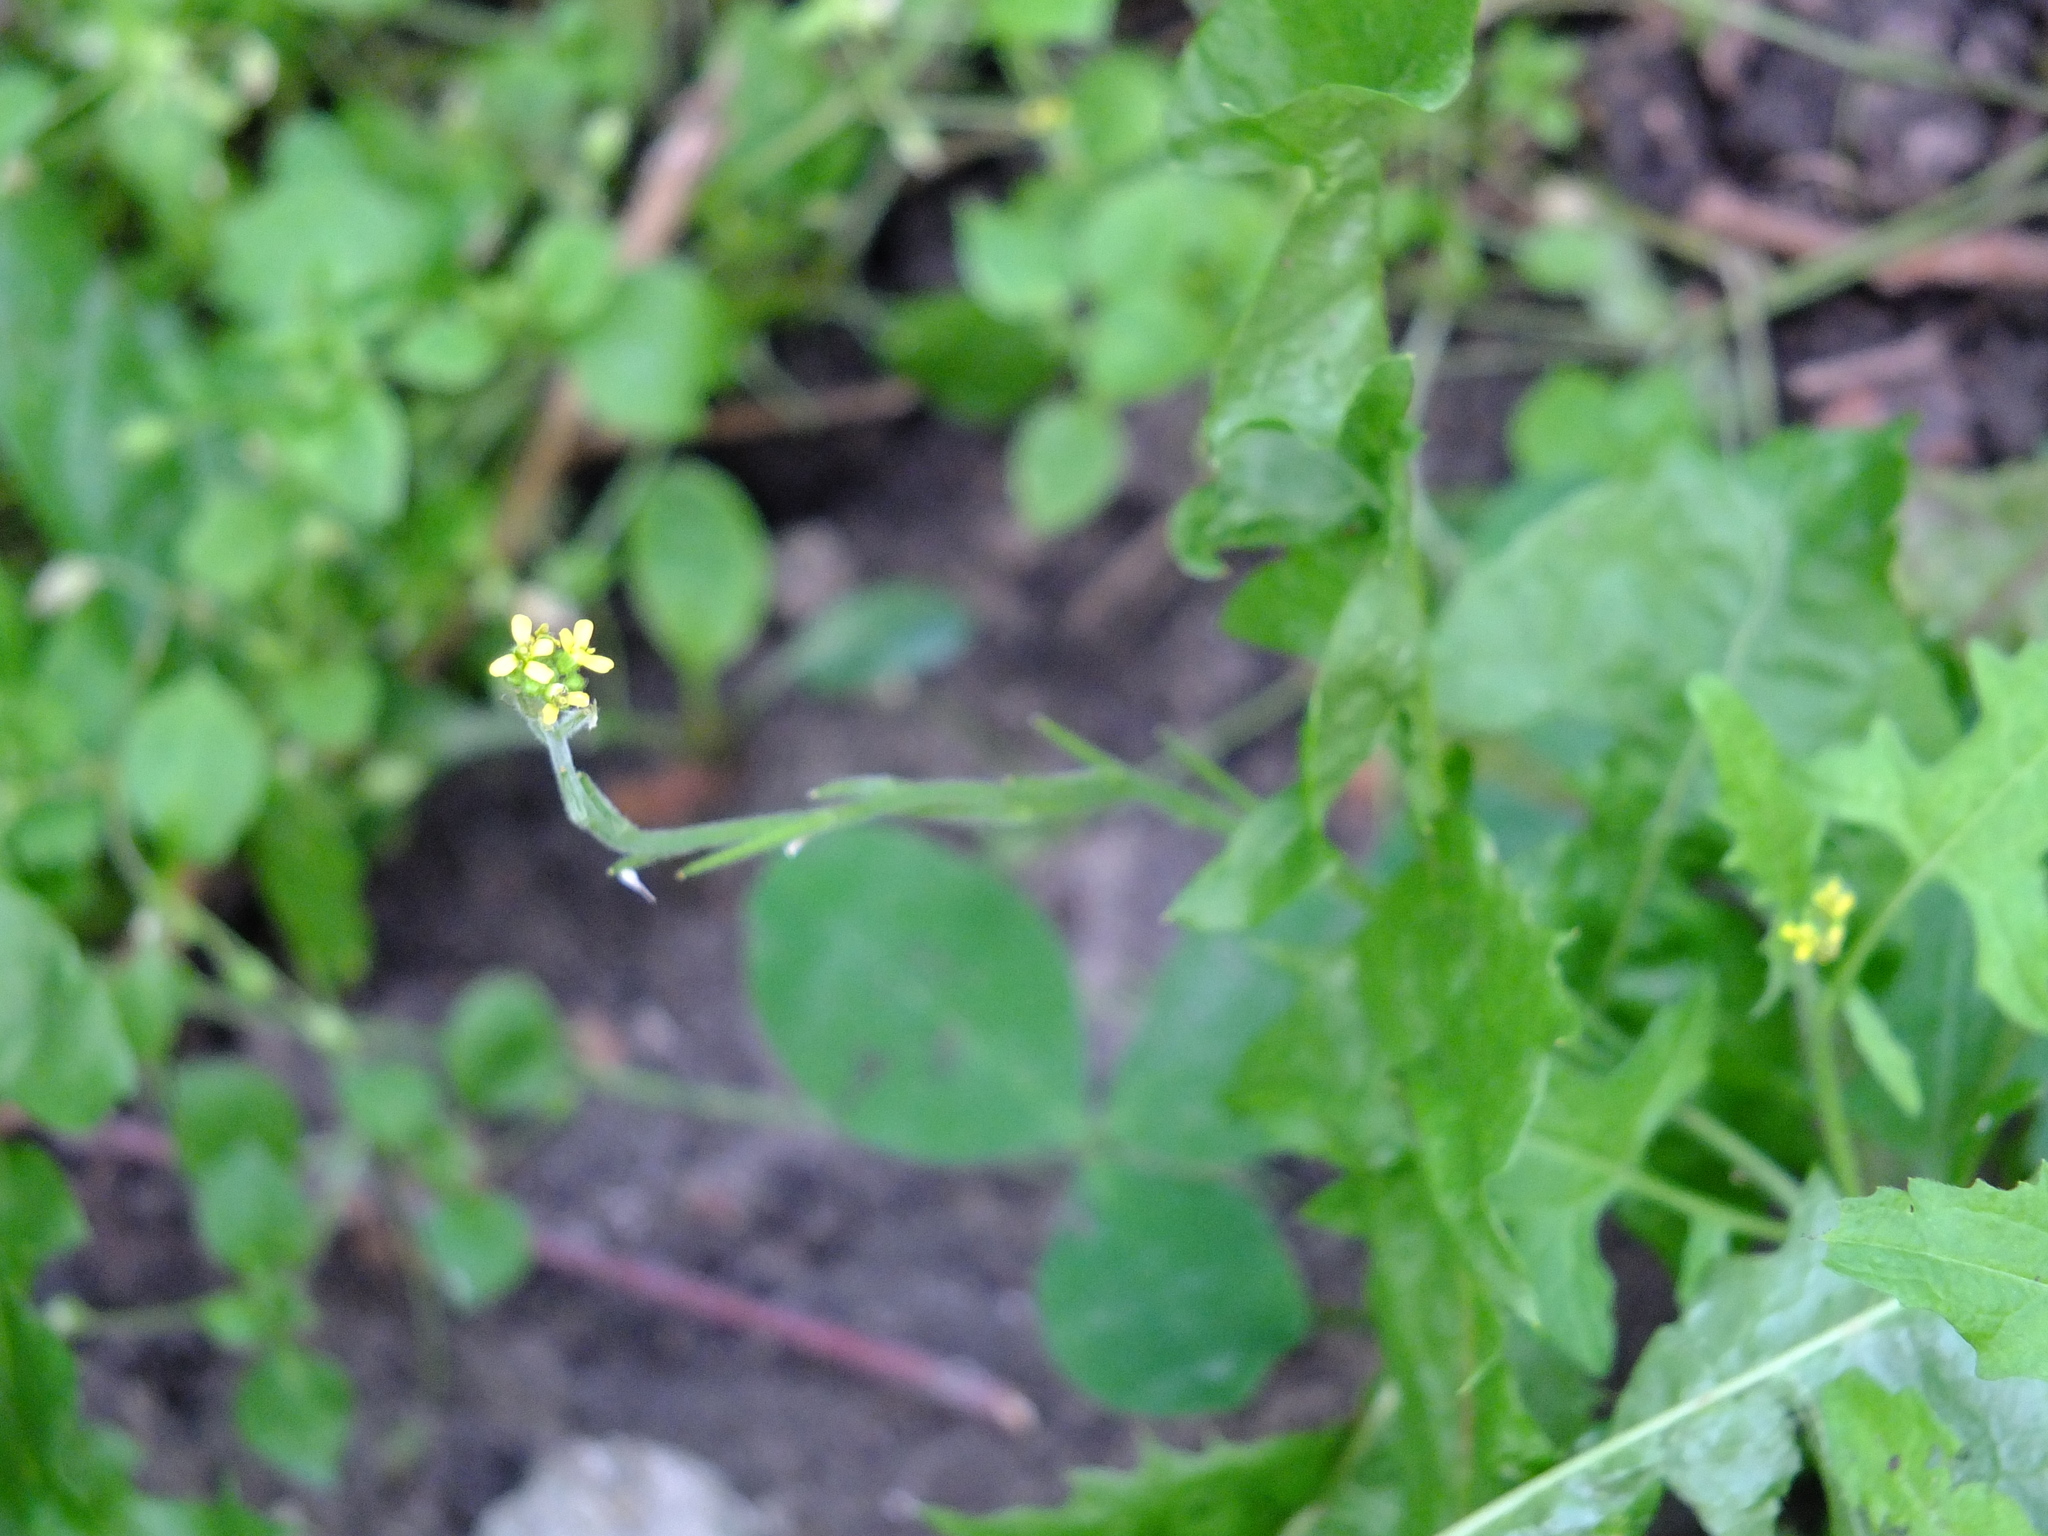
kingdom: Plantae
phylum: Tracheophyta
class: Magnoliopsida
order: Brassicales
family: Brassicaceae
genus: Sisymbrium
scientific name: Sisymbrium officinale
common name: Hedge mustard
